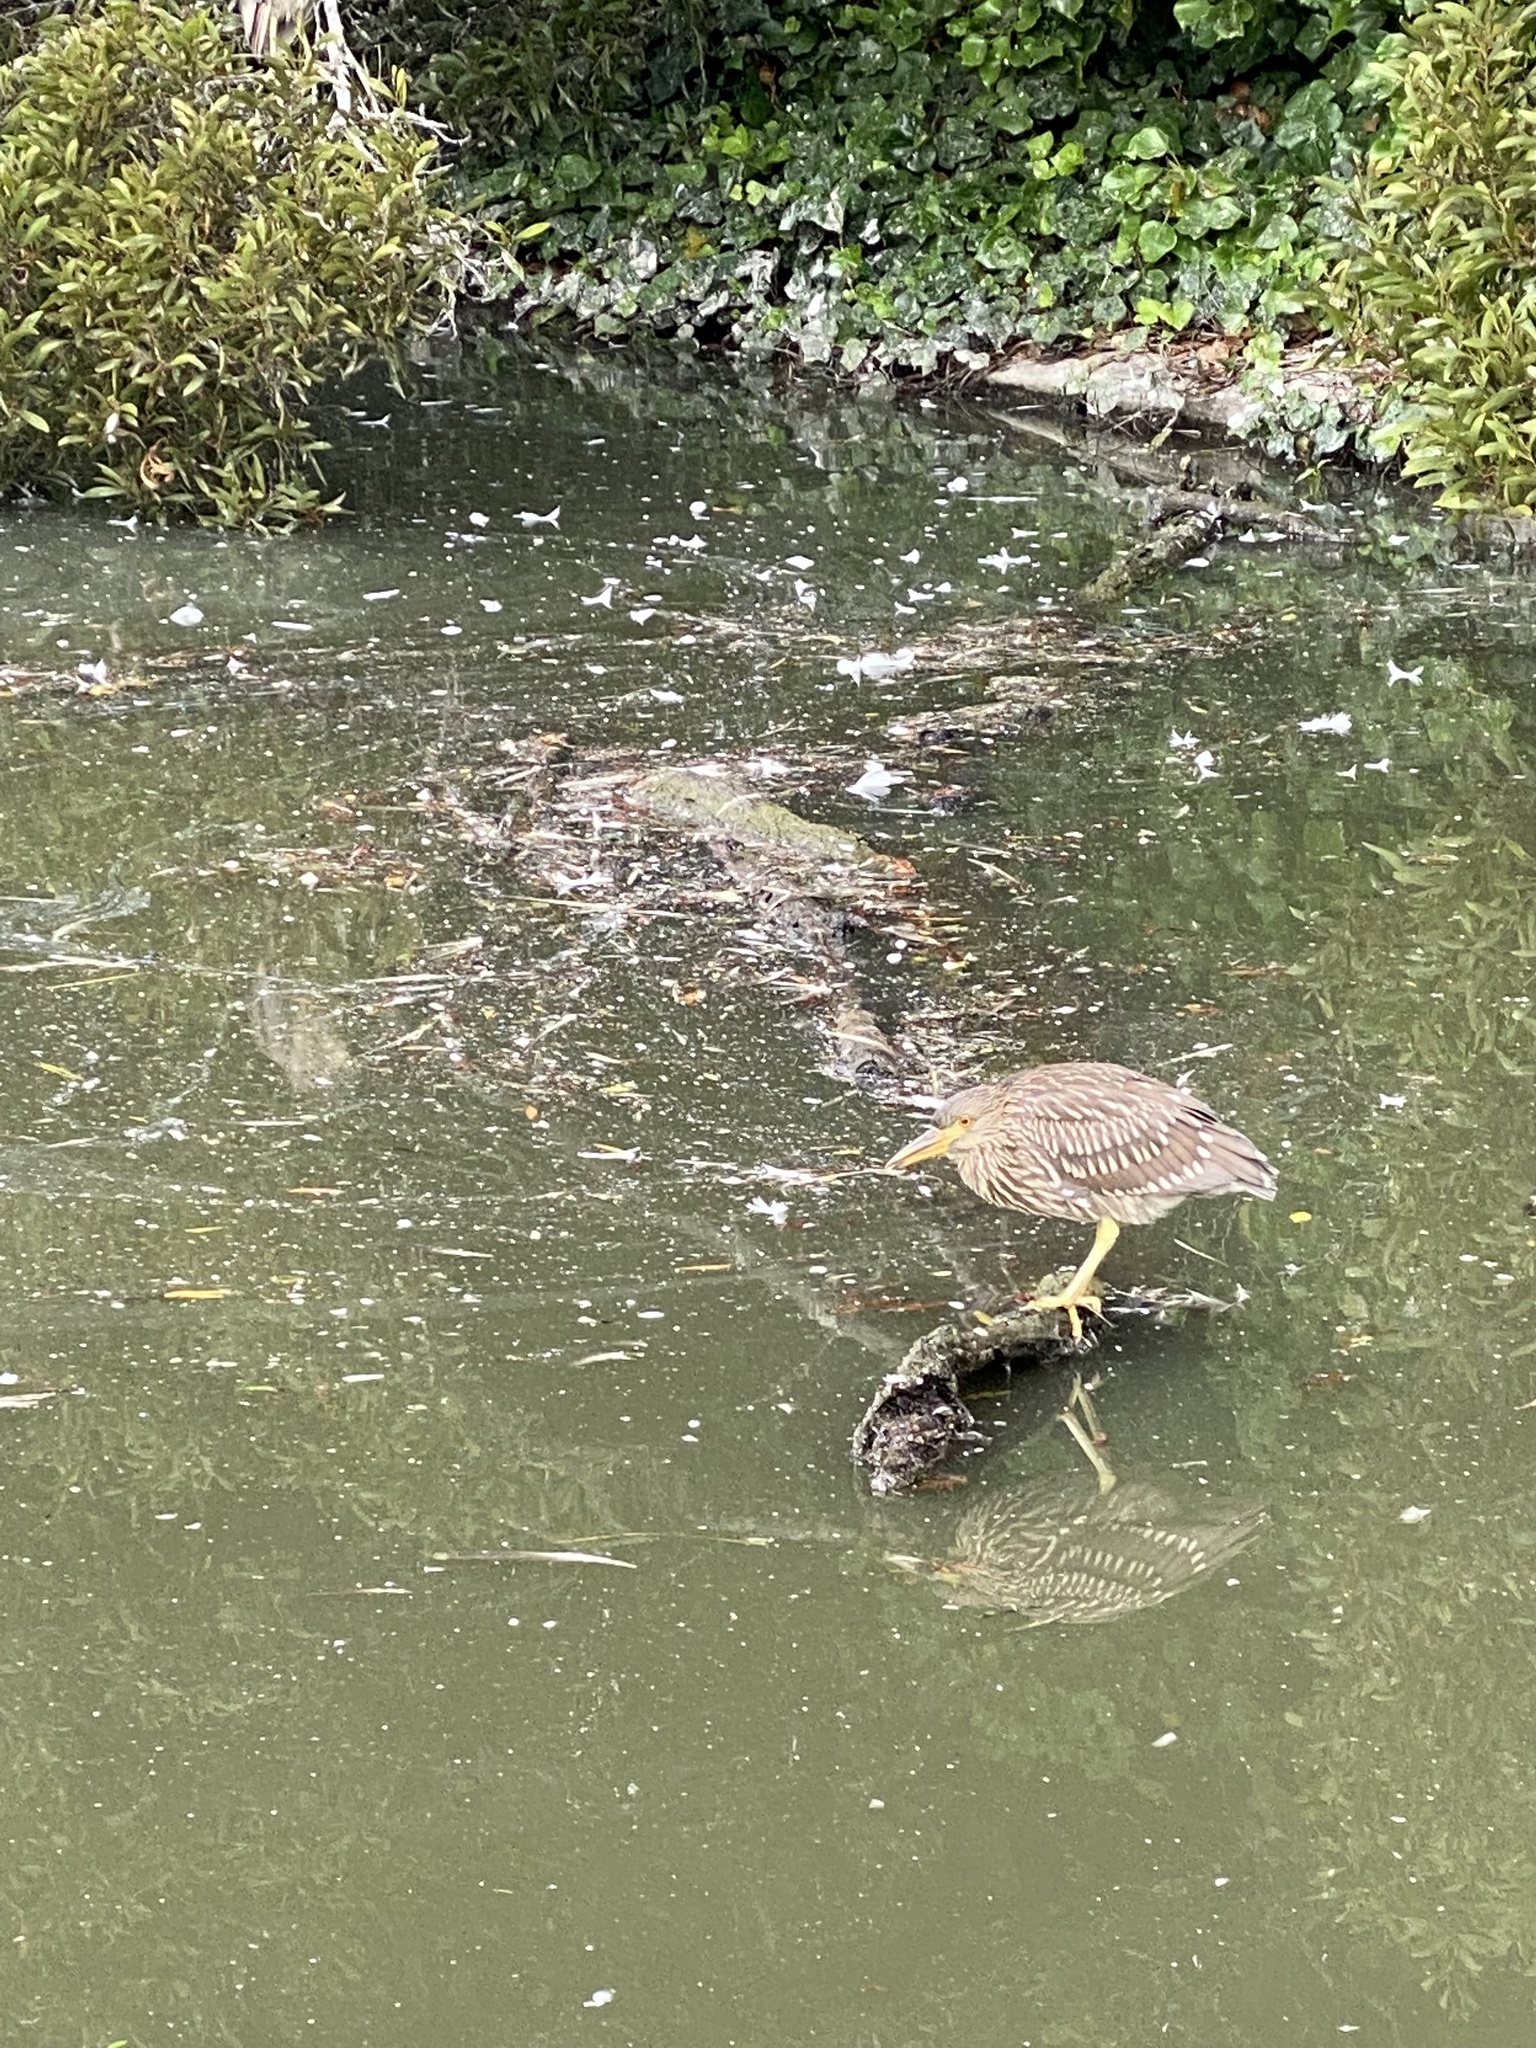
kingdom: Animalia
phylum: Chordata
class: Aves
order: Pelecaniformes
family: Ardeidae
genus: Nycticorax
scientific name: Nycticorax nycticorax
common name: Black-crowned night heron
